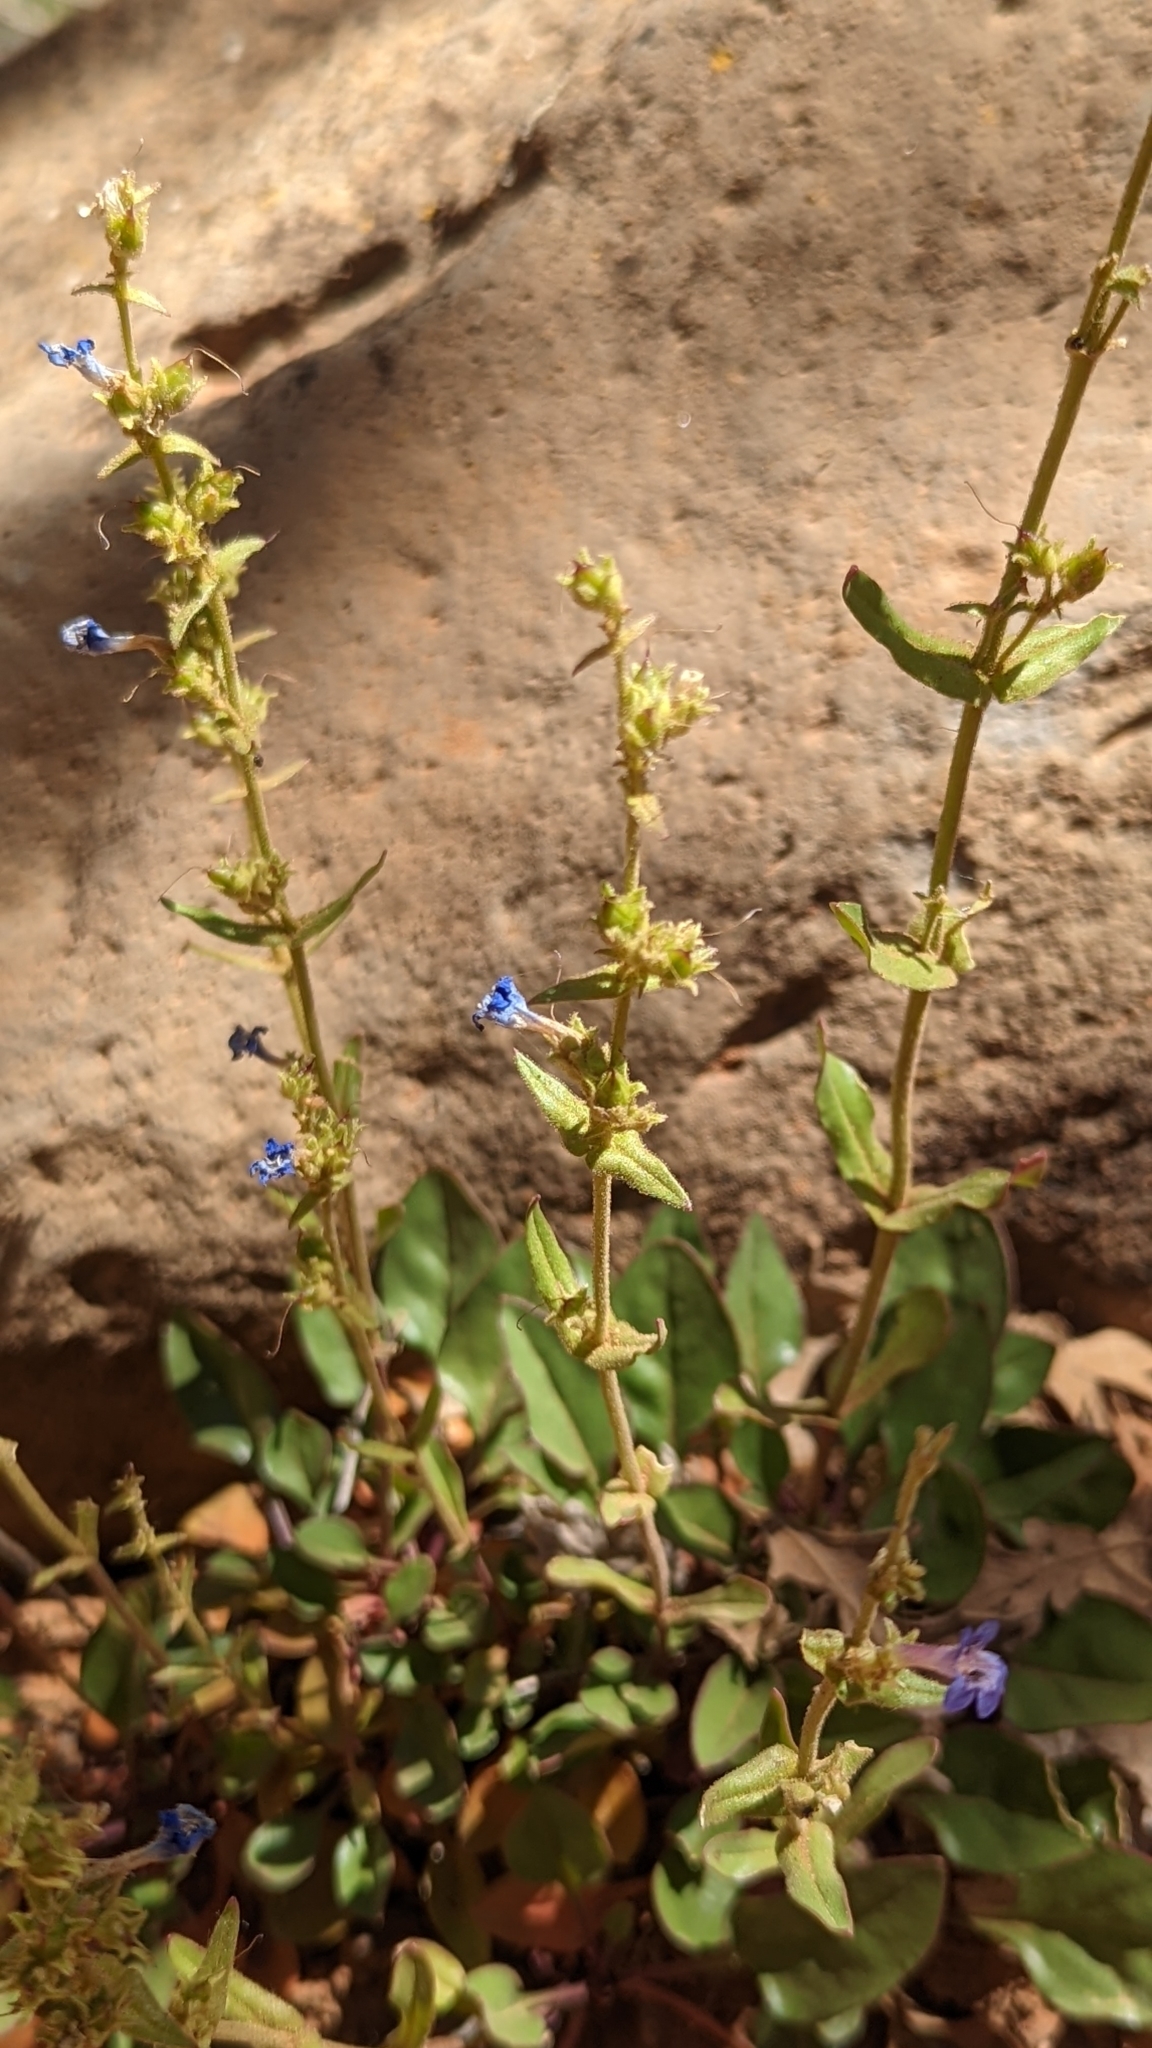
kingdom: Plantae
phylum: Tracheophyta
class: Magnoliopsida
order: Lamiales
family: Plantaginaceae
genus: Penstemon
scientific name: Penstemon humilis
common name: Low penstemon
